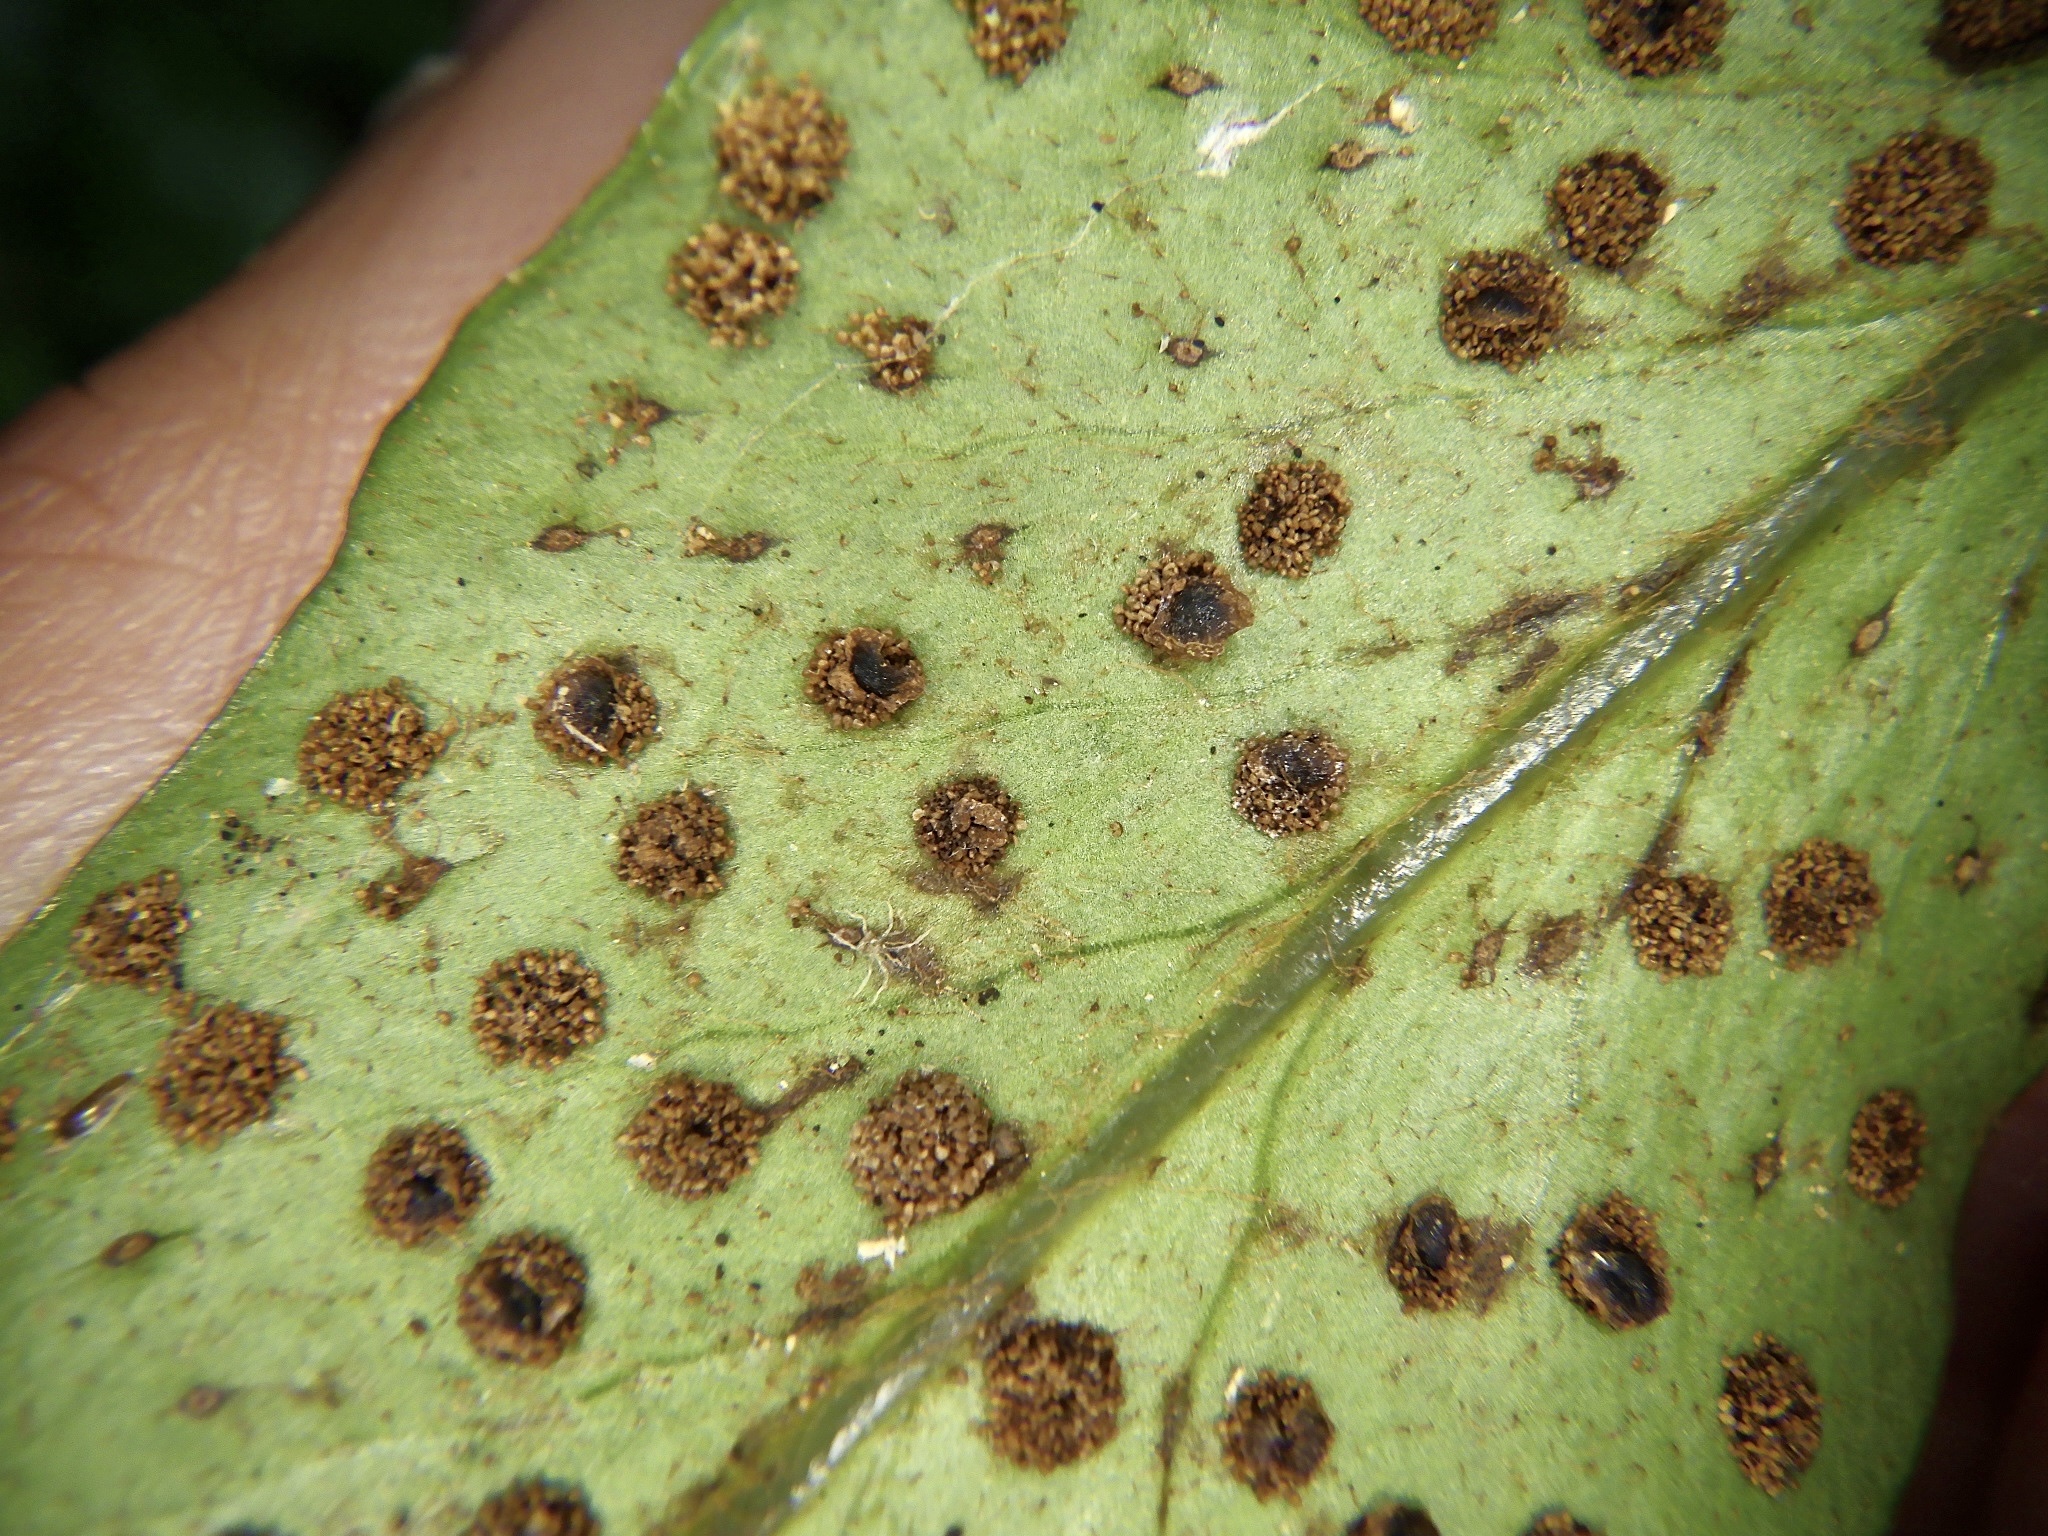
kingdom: Plantae
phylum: Tracheophyta
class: Polypodiopsida
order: Polypodiales
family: Dryopteridaceae
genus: Cyrtomium
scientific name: Cyrtomium devexiscapulae
